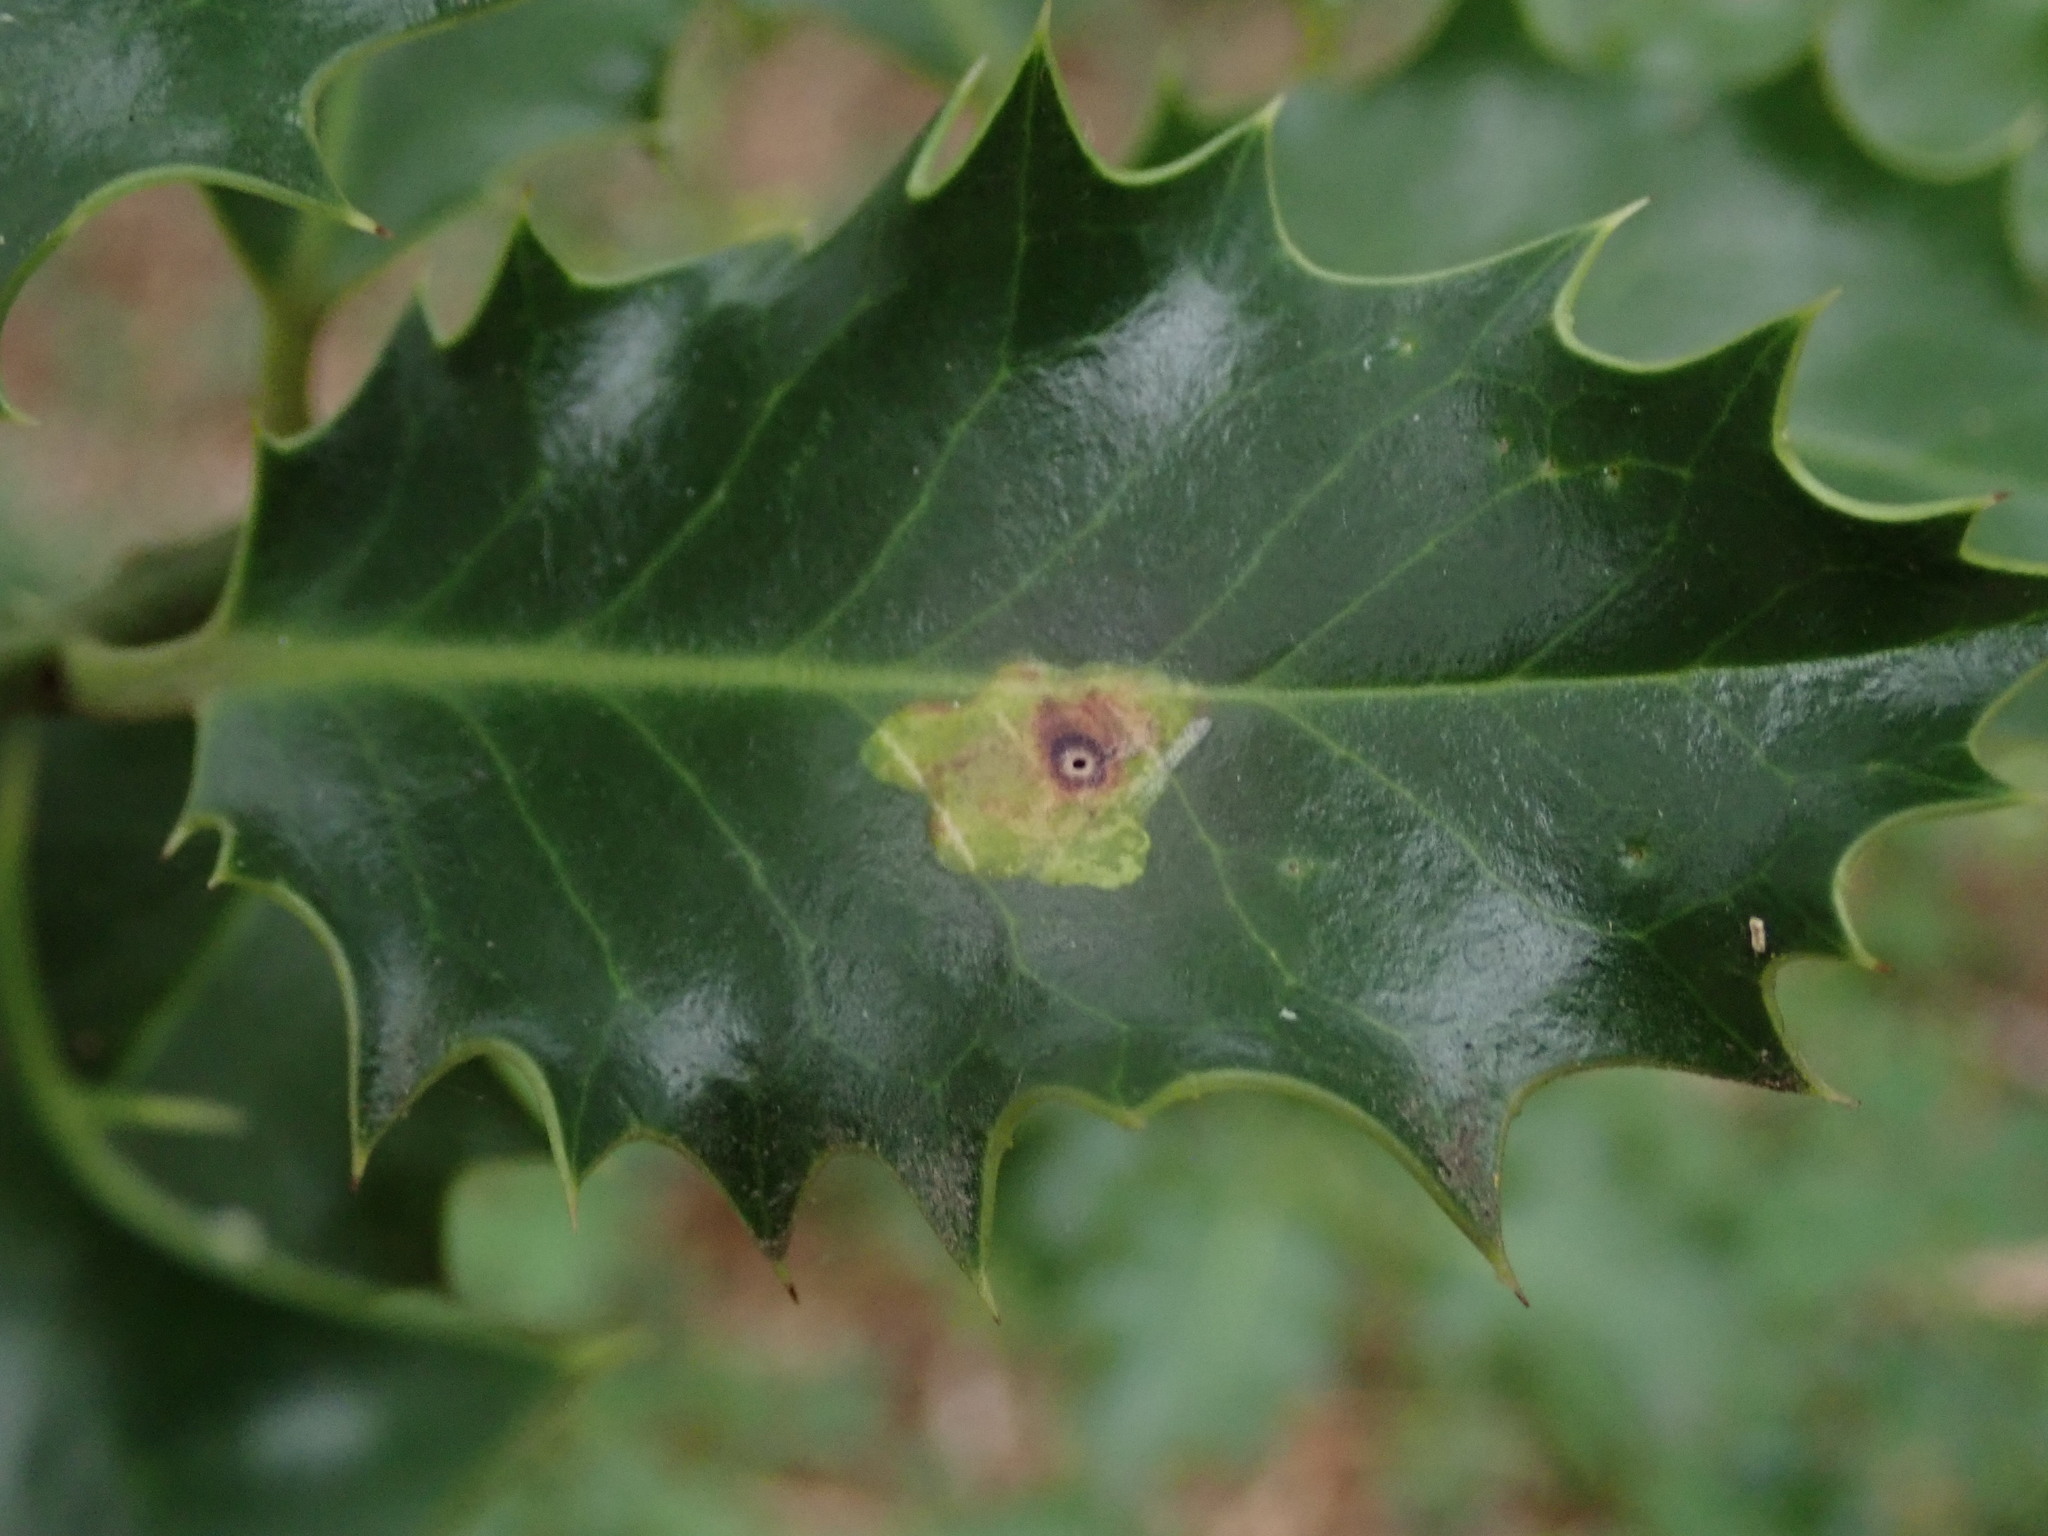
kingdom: Animalia
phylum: Arthropoda
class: Insecta
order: Diptera
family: Agromyzidae
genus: Phytomyza
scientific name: Phytomyza ilicis
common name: Holly leafminer
